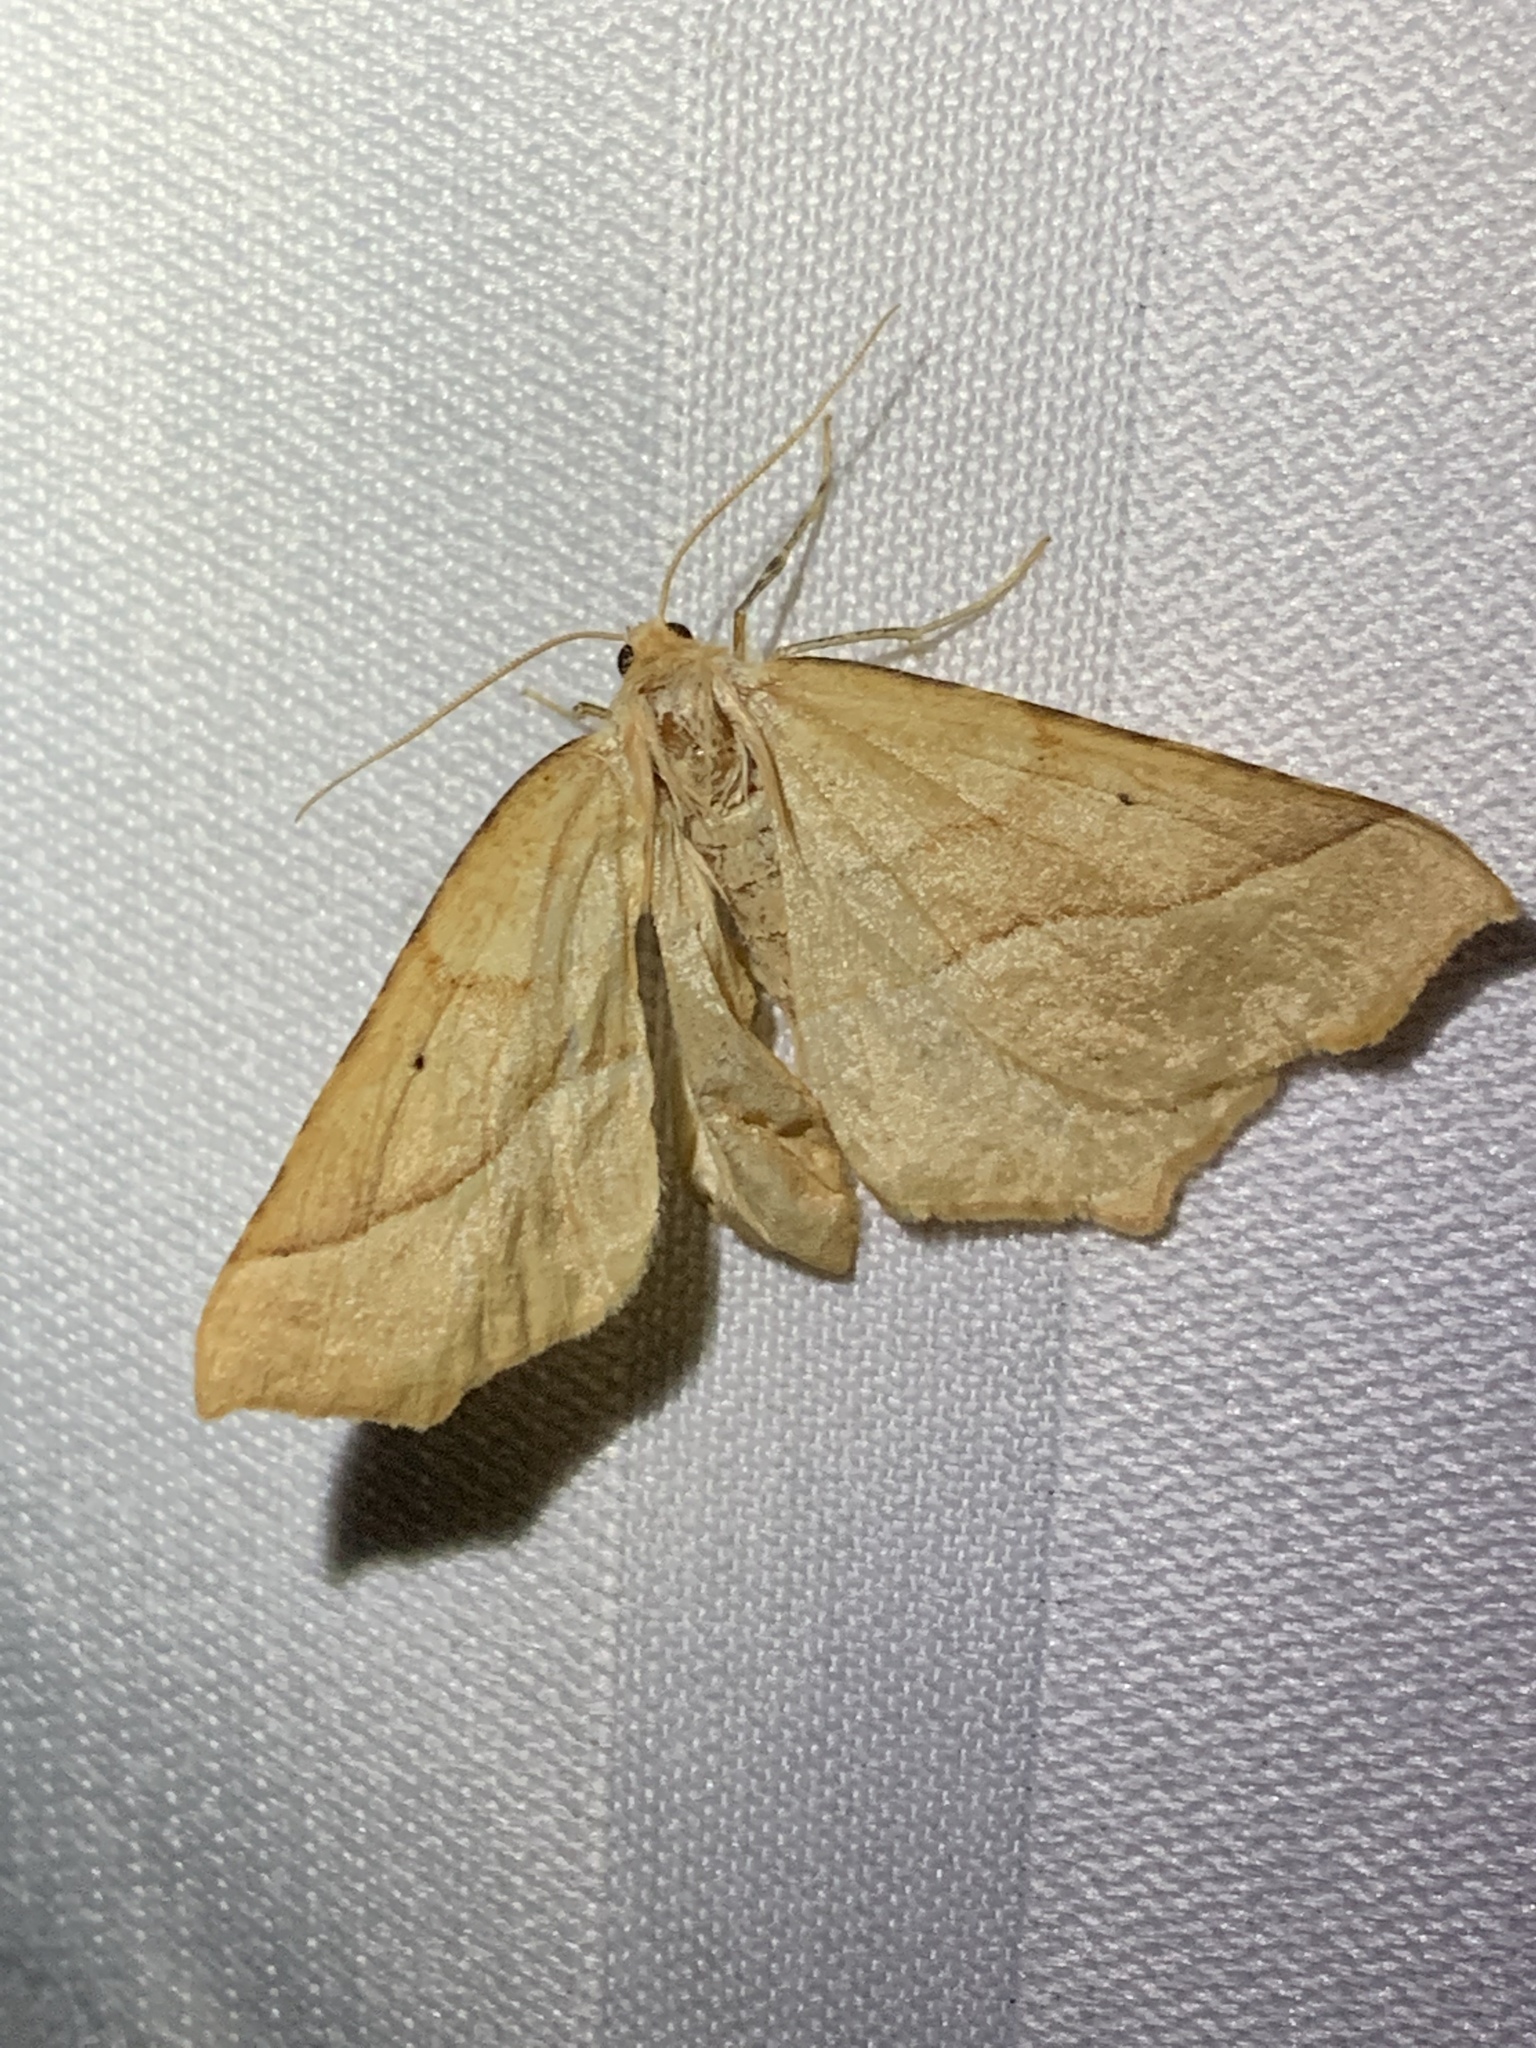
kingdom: Animalia
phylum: Arthropoda
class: Insecta
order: Lepidoptera
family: Geometridae
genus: Synaxis
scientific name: Synaxis jubararia
